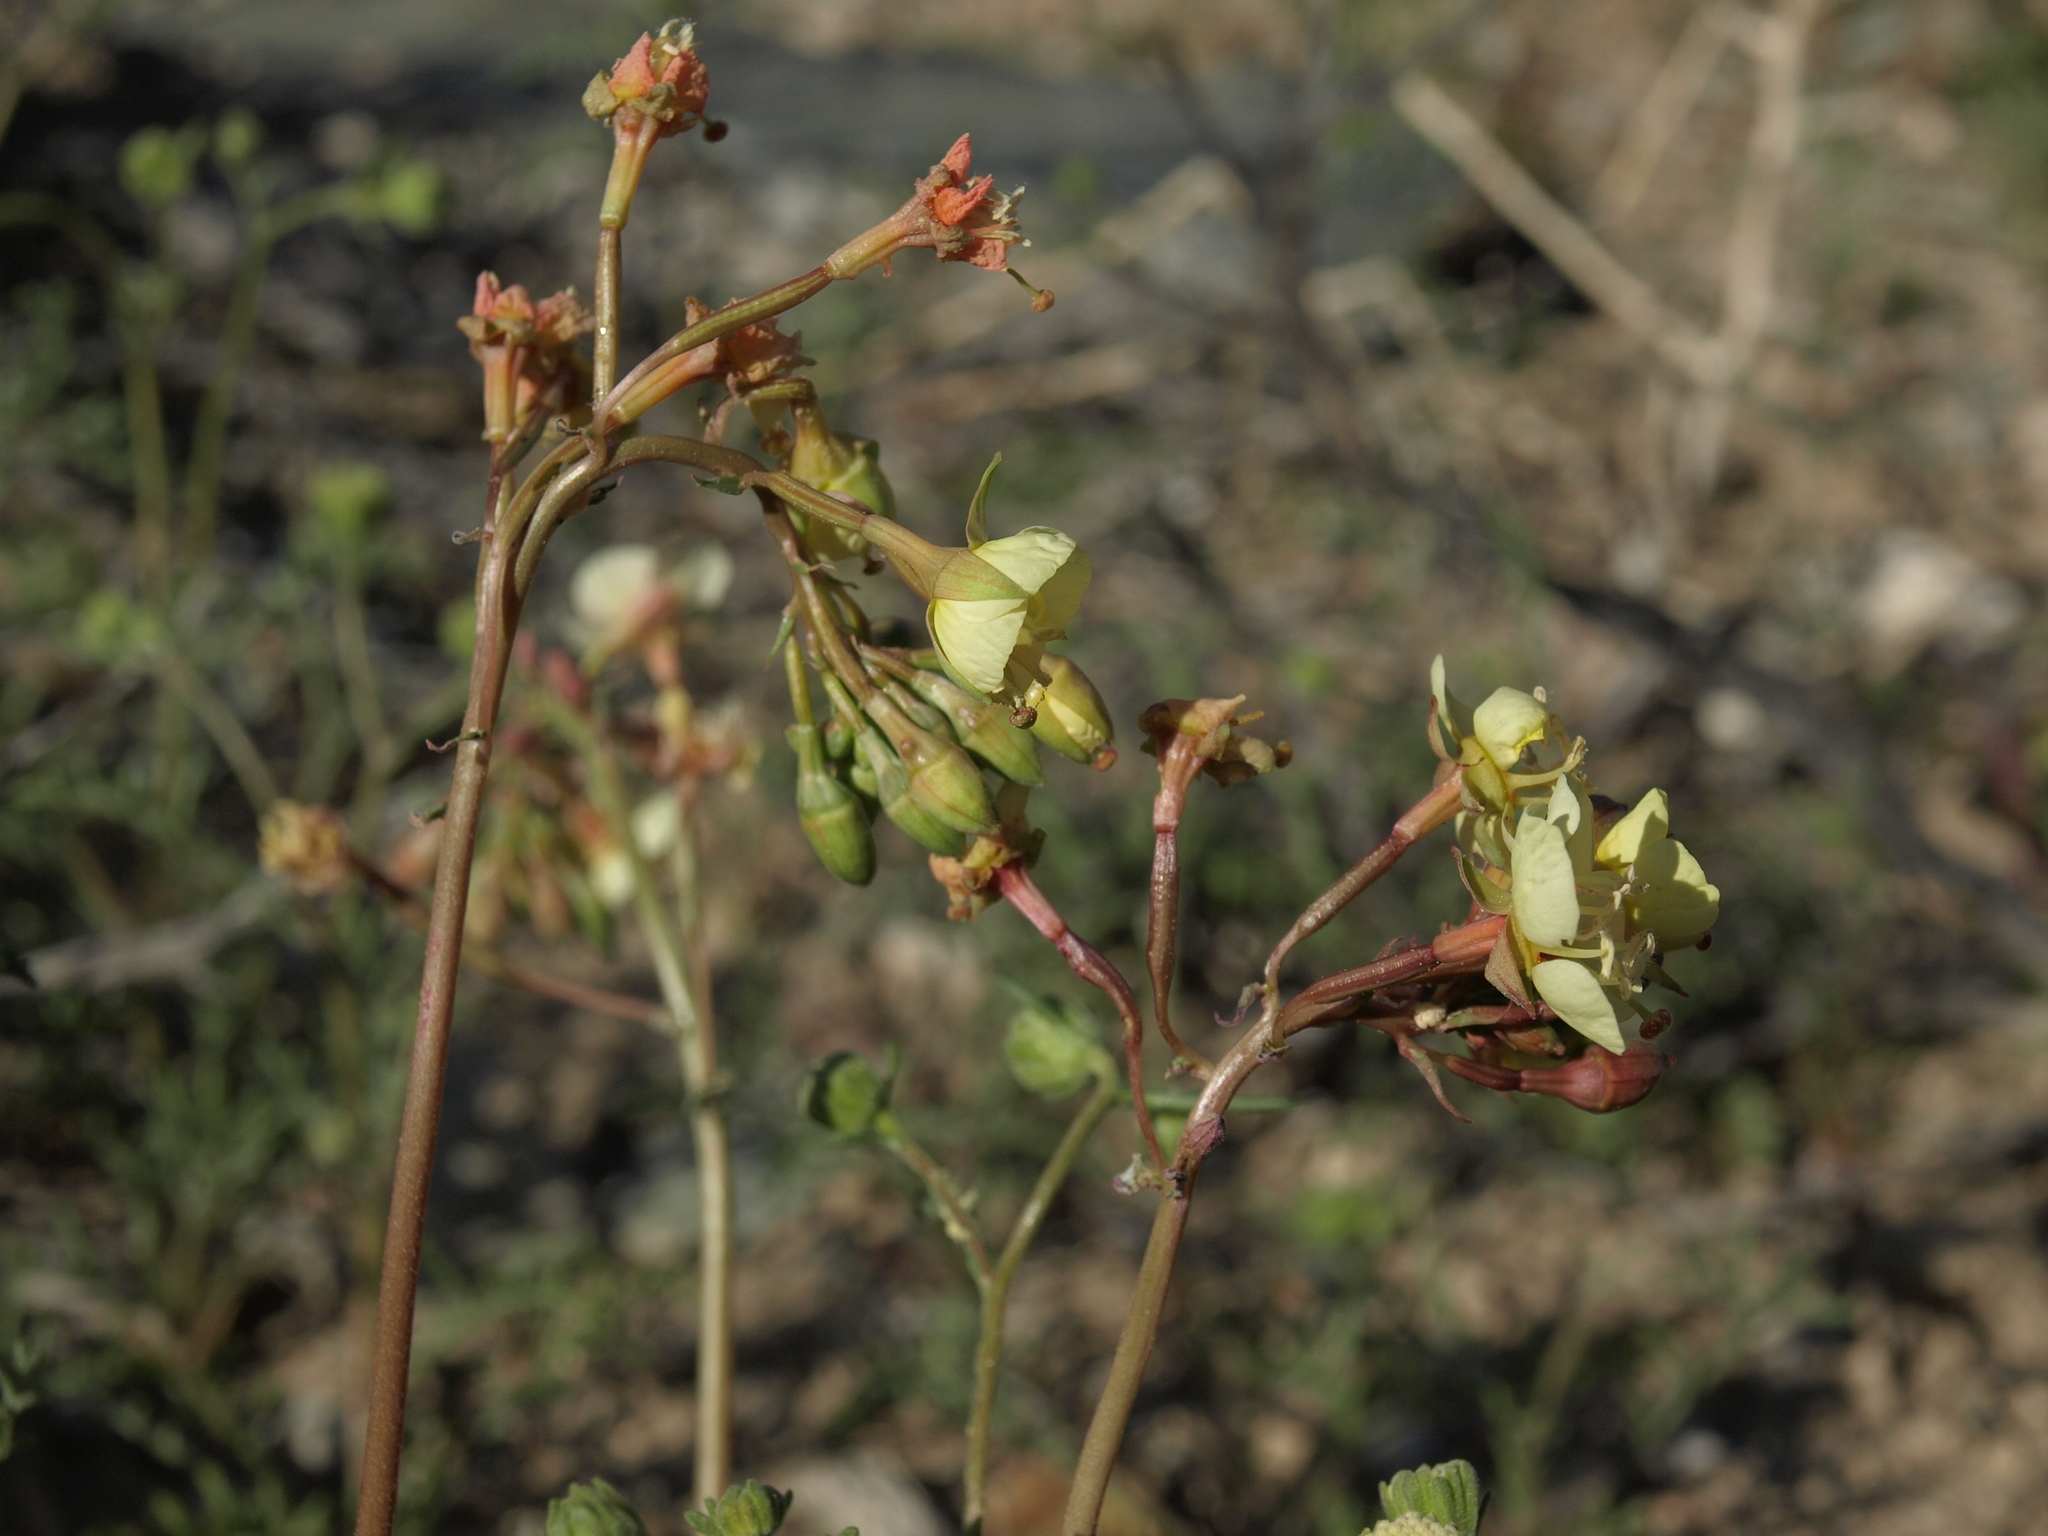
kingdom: Plantae
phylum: Tracheophyta
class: Magnoliopsida
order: Myrtales
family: Onagraceae
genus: Chylismia
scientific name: Chylismia claviformis
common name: Browneyes
